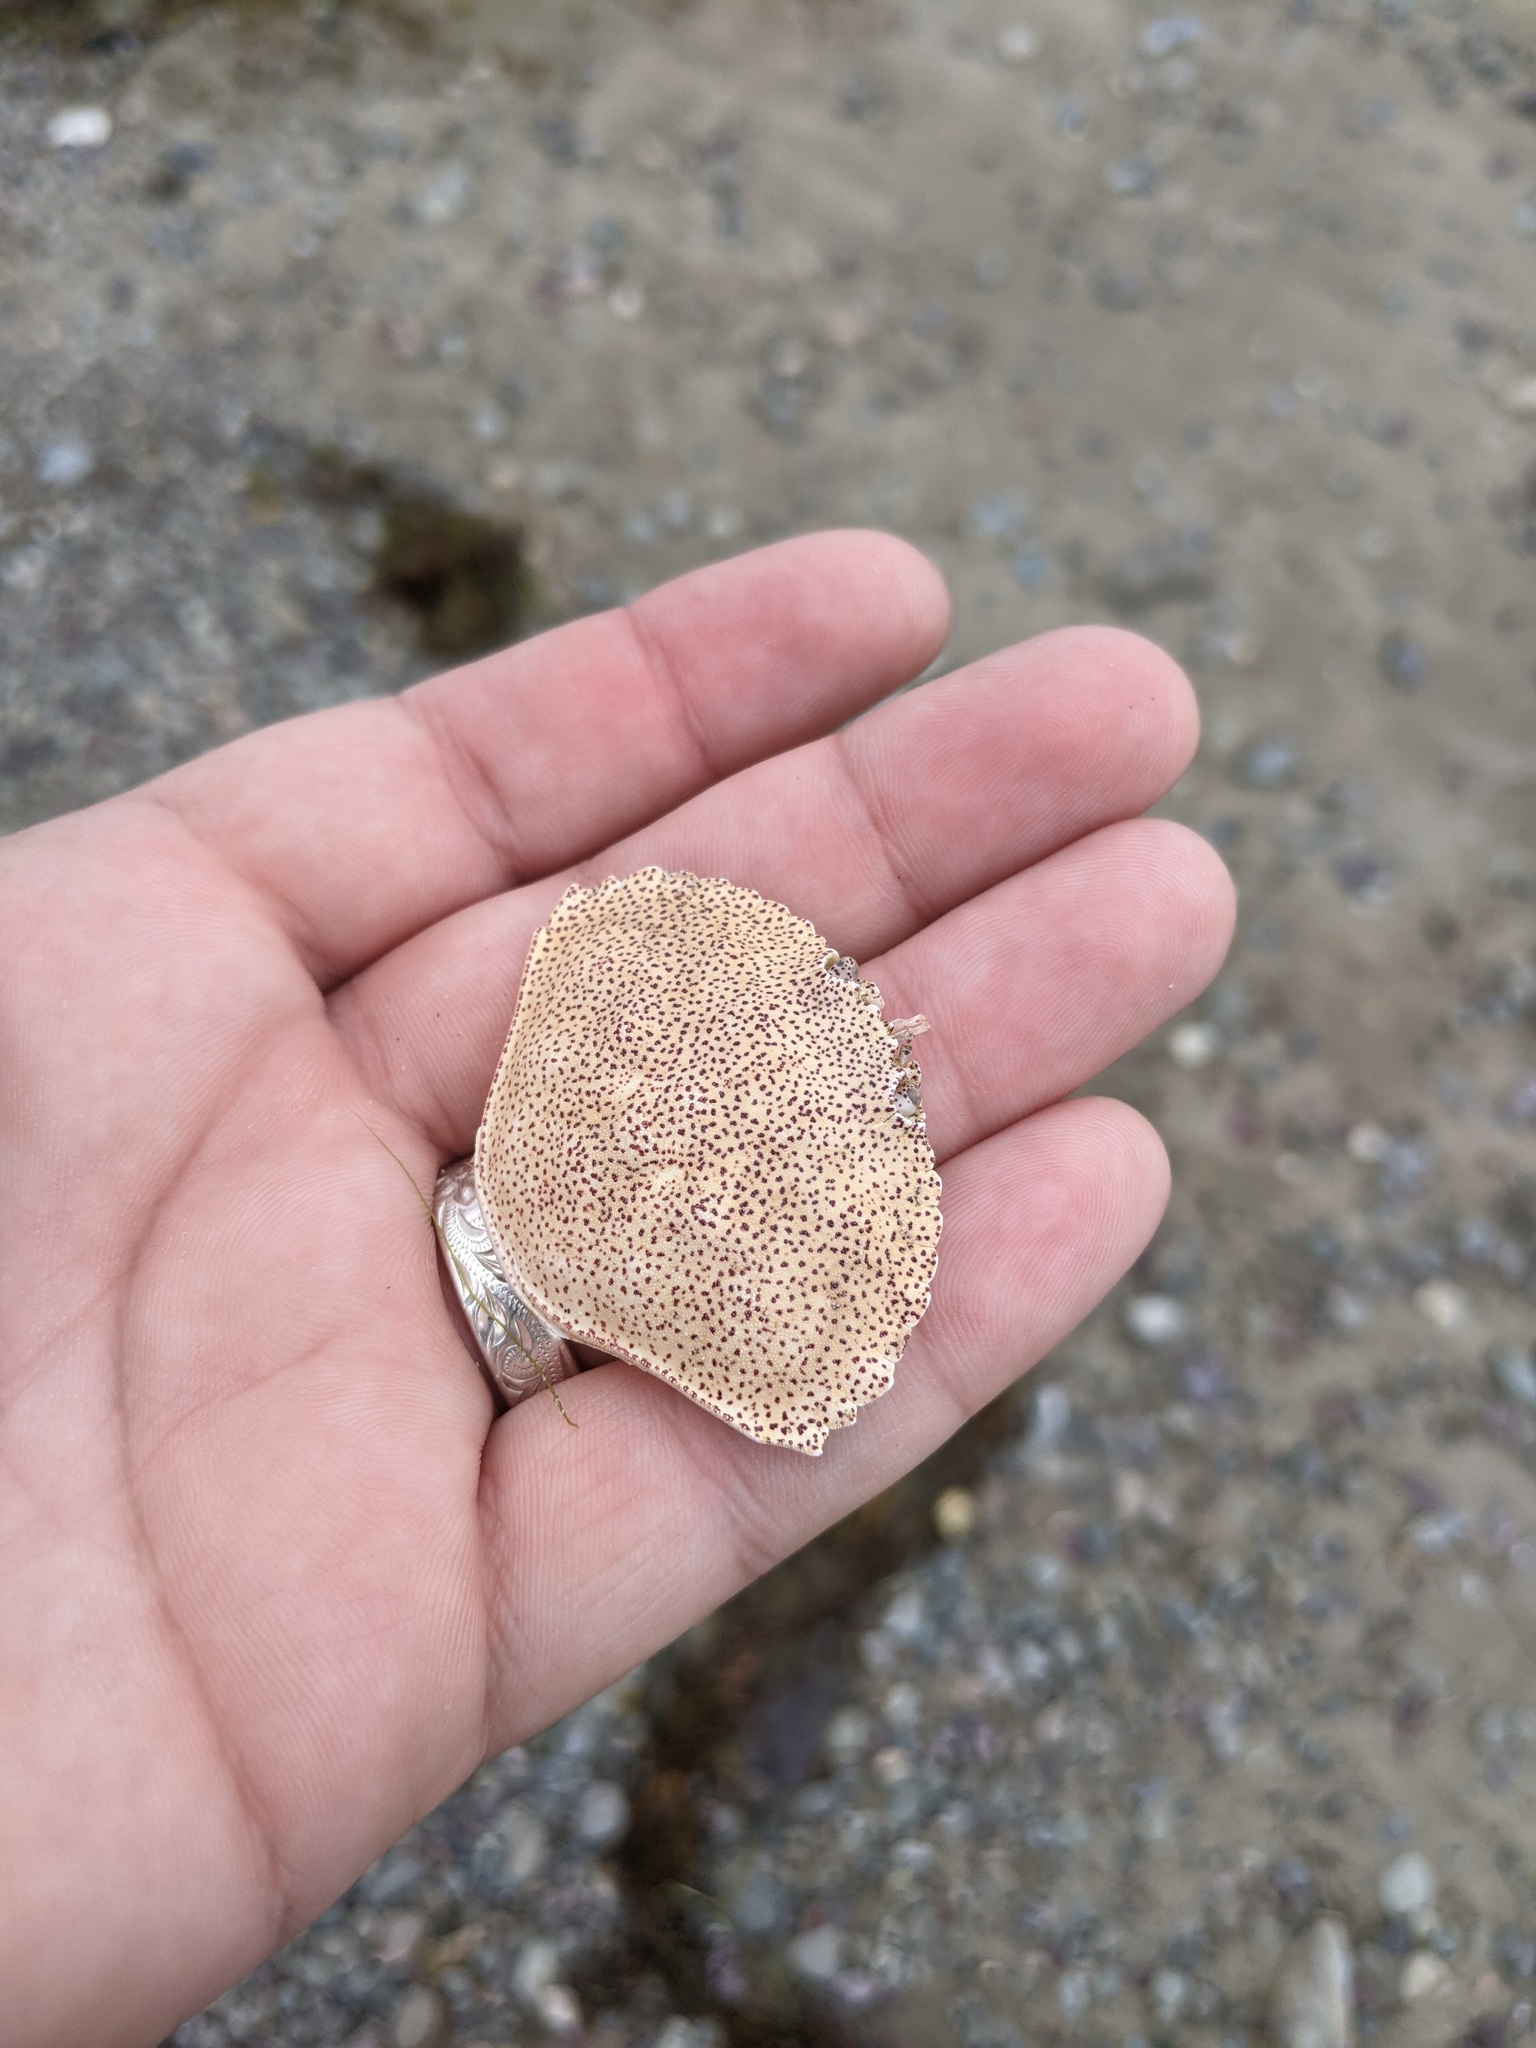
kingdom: Animalia
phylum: Arthropoda
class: Malacostraca
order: Decapoda
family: Cancridae
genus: Cancer
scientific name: Cancer irroratus
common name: Atlantic rock crab
